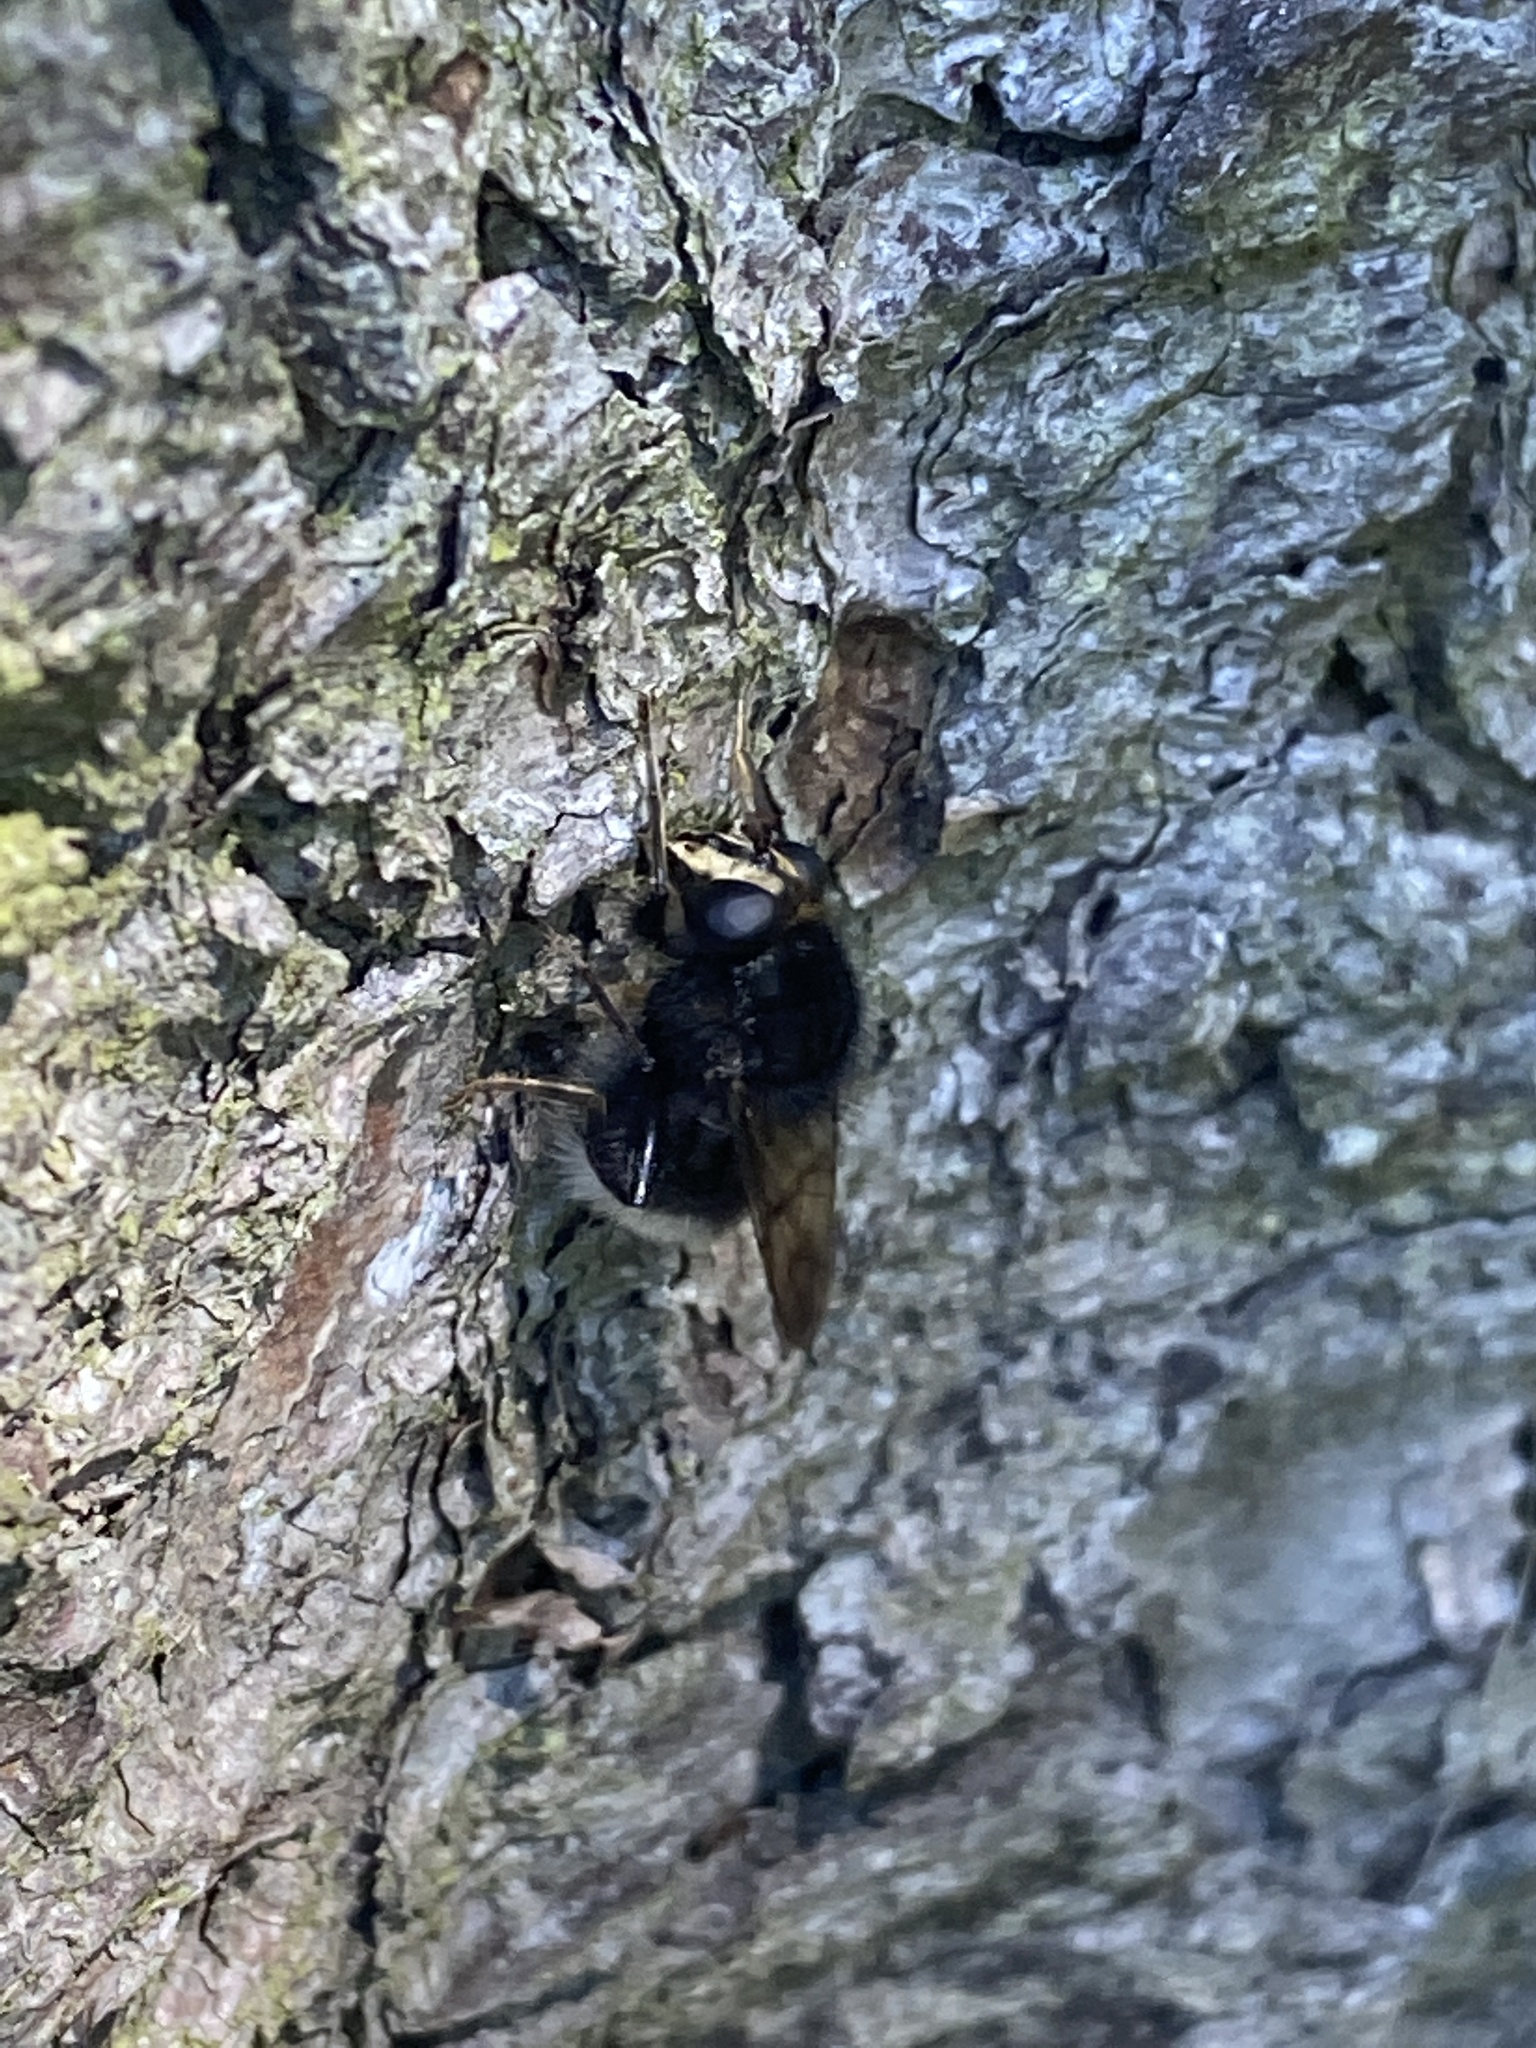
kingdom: Animalia
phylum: Arthropoda
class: Insecta
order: Diptera
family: Syrphidae
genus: Criorhina
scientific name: Criorhina ranunculi
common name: Large bear hoverfly
